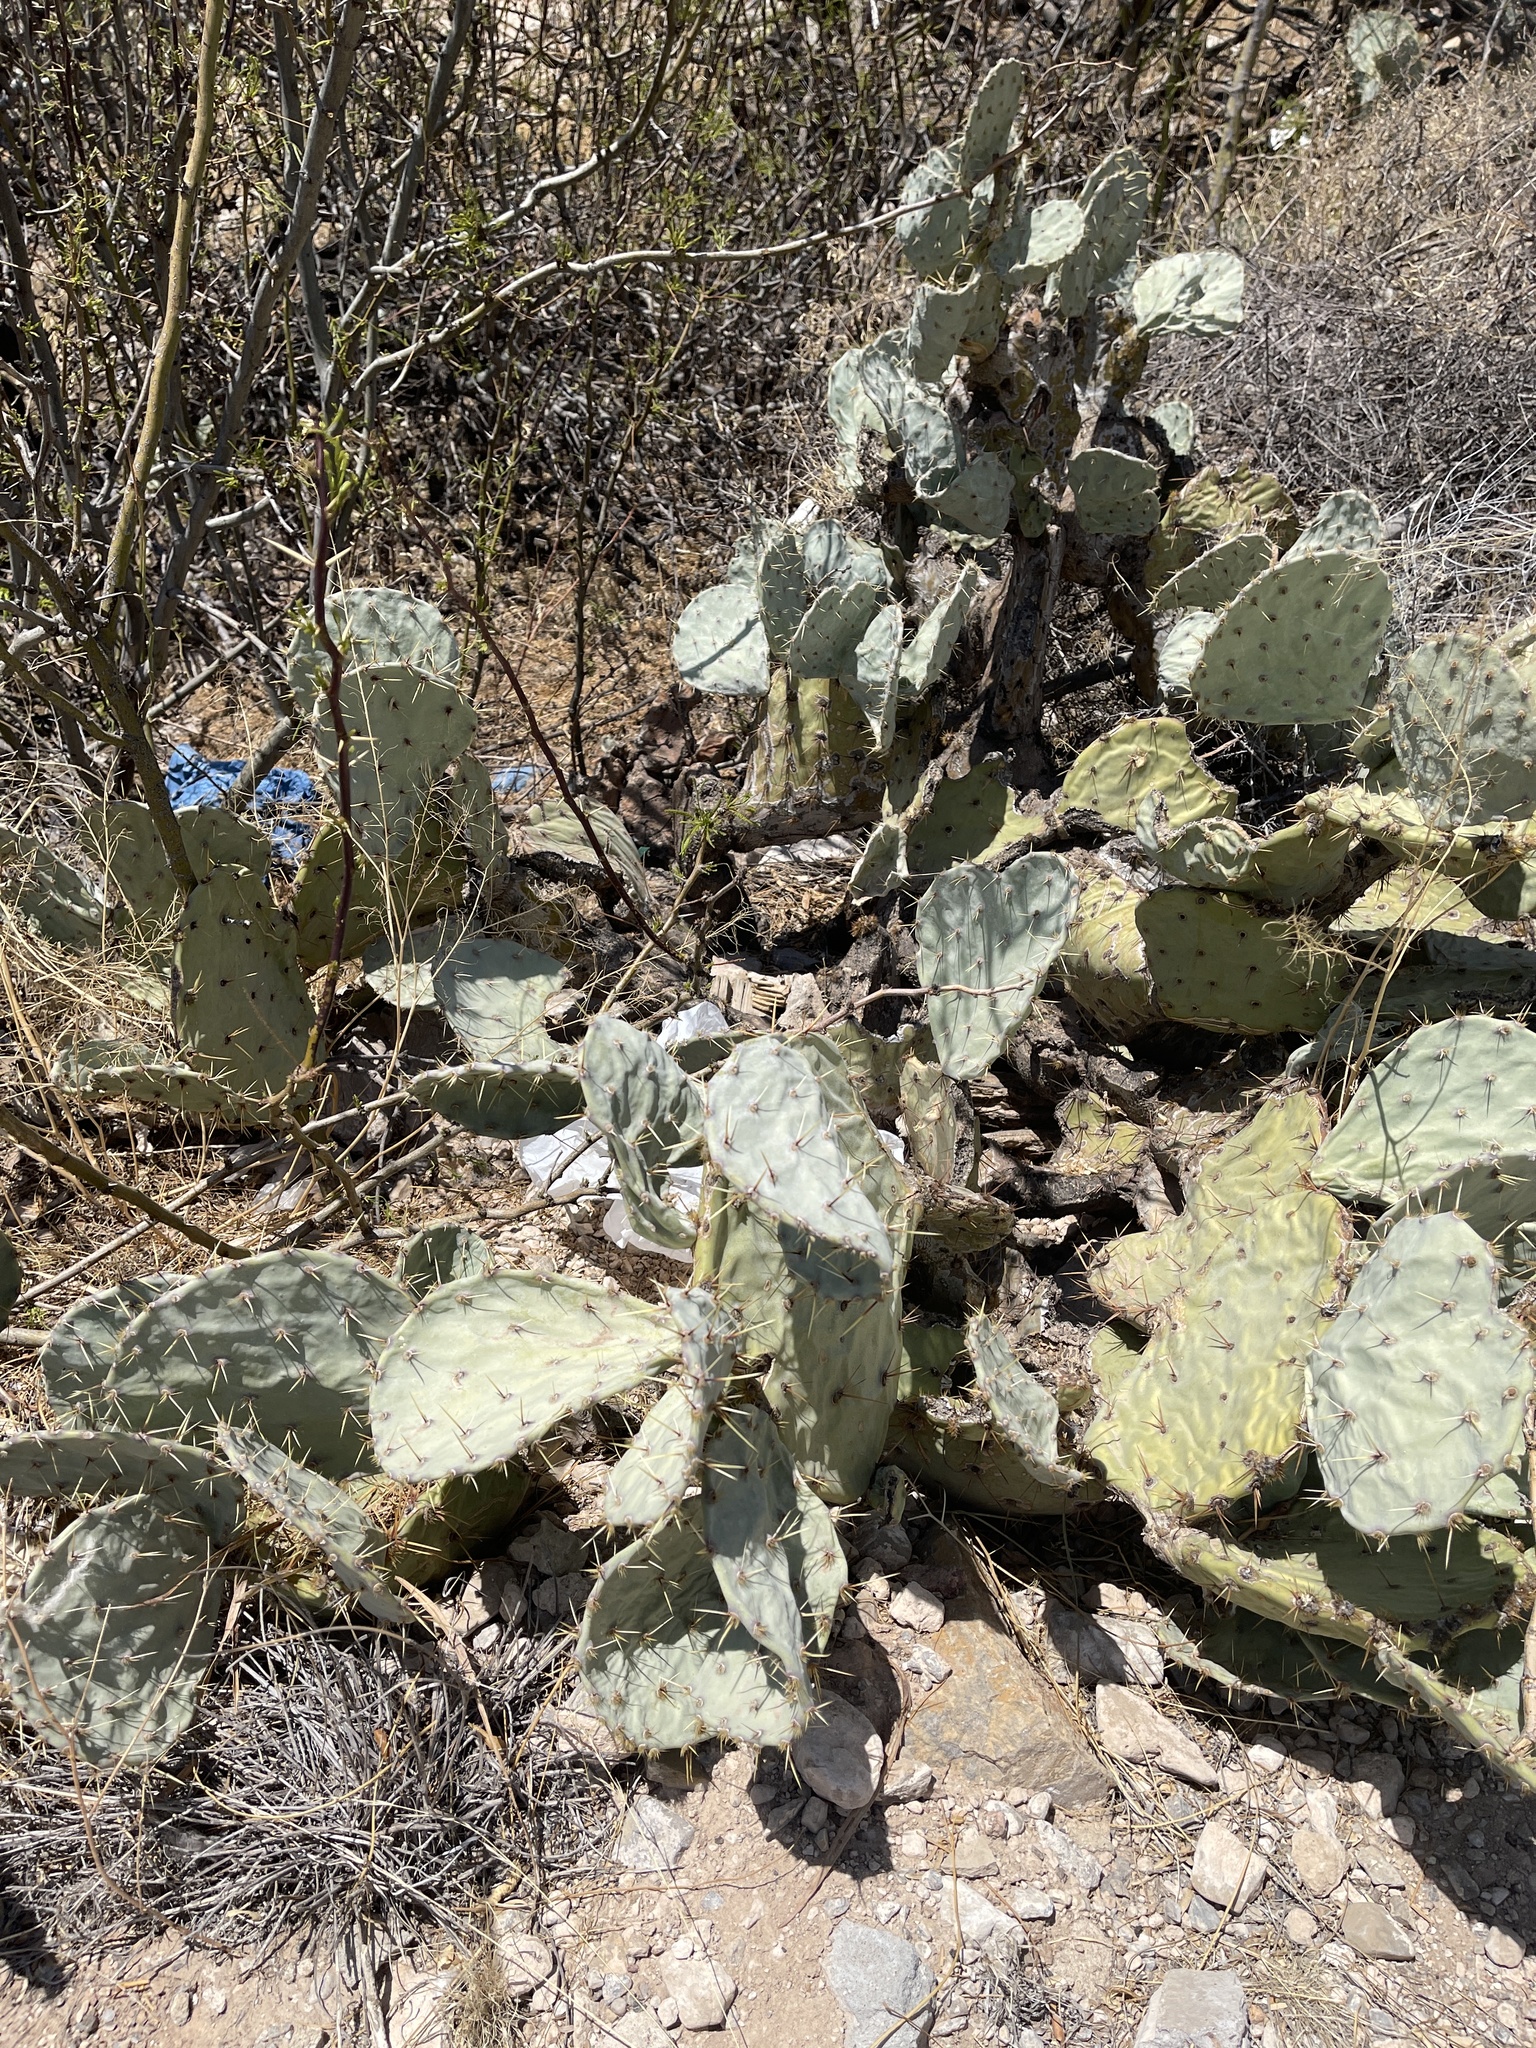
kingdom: Plantae
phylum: Tracheophyta
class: Magnoliopsida
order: Caryophyllales
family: Cactaceae
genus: Opuntia
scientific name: Opuntia engelmannii
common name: Cactus-apple
